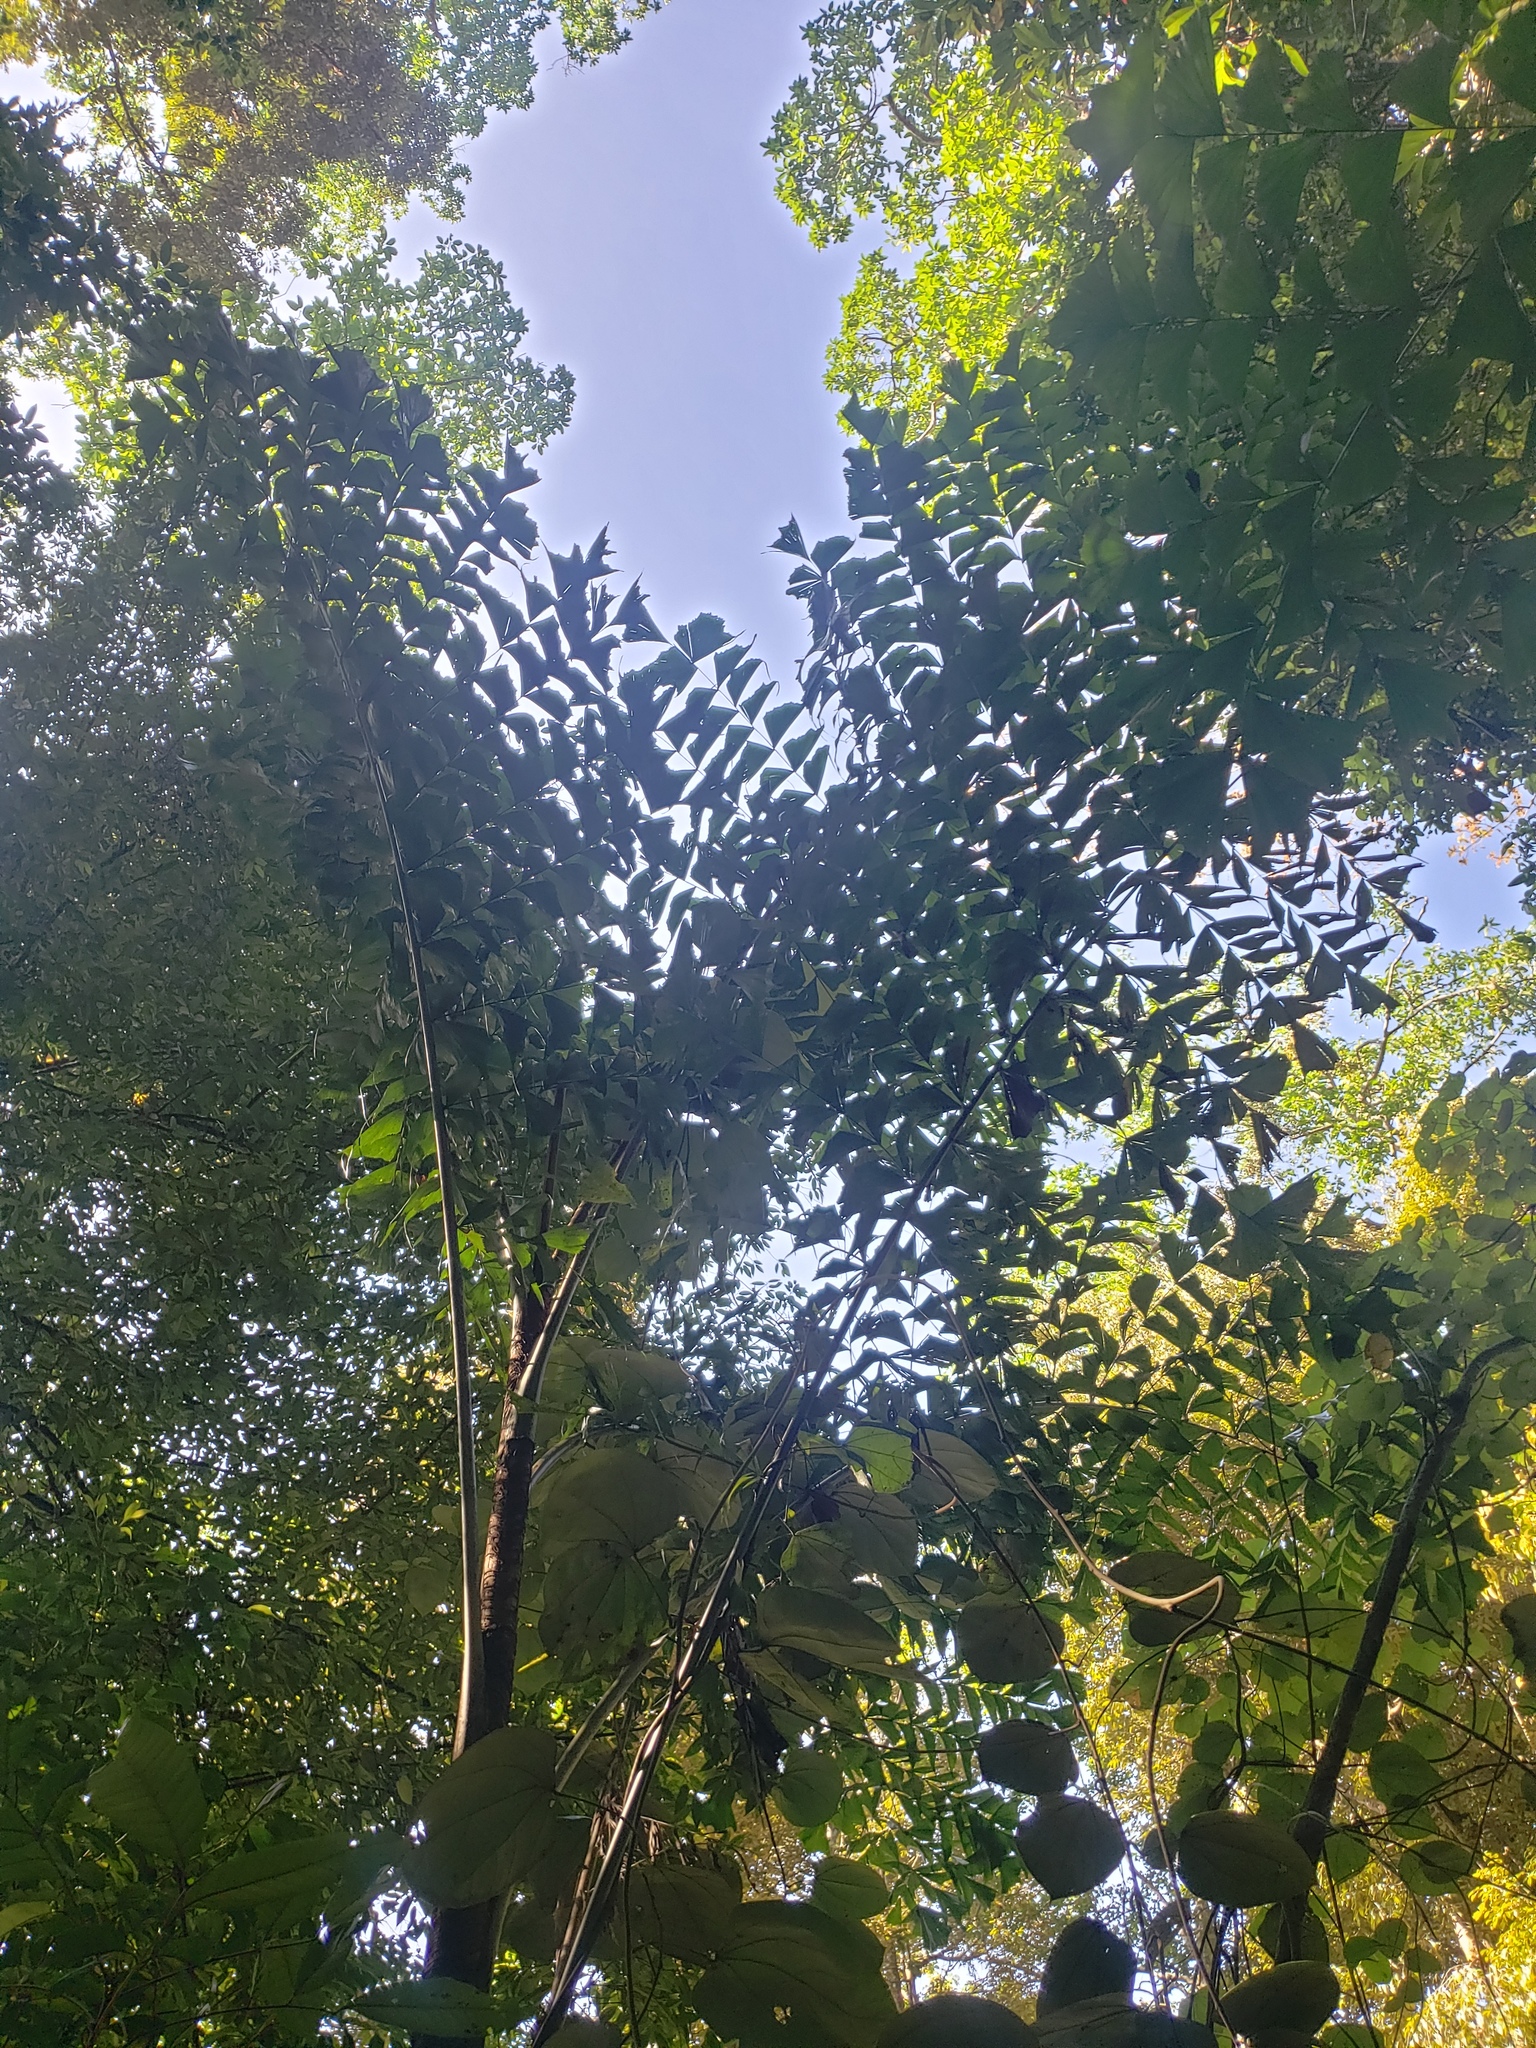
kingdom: Plantae
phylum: Tracheophyta
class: Liliopsida
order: Arecales
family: Arecaceae
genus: Caryota
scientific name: Caryota urens
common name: Jaggery palm
